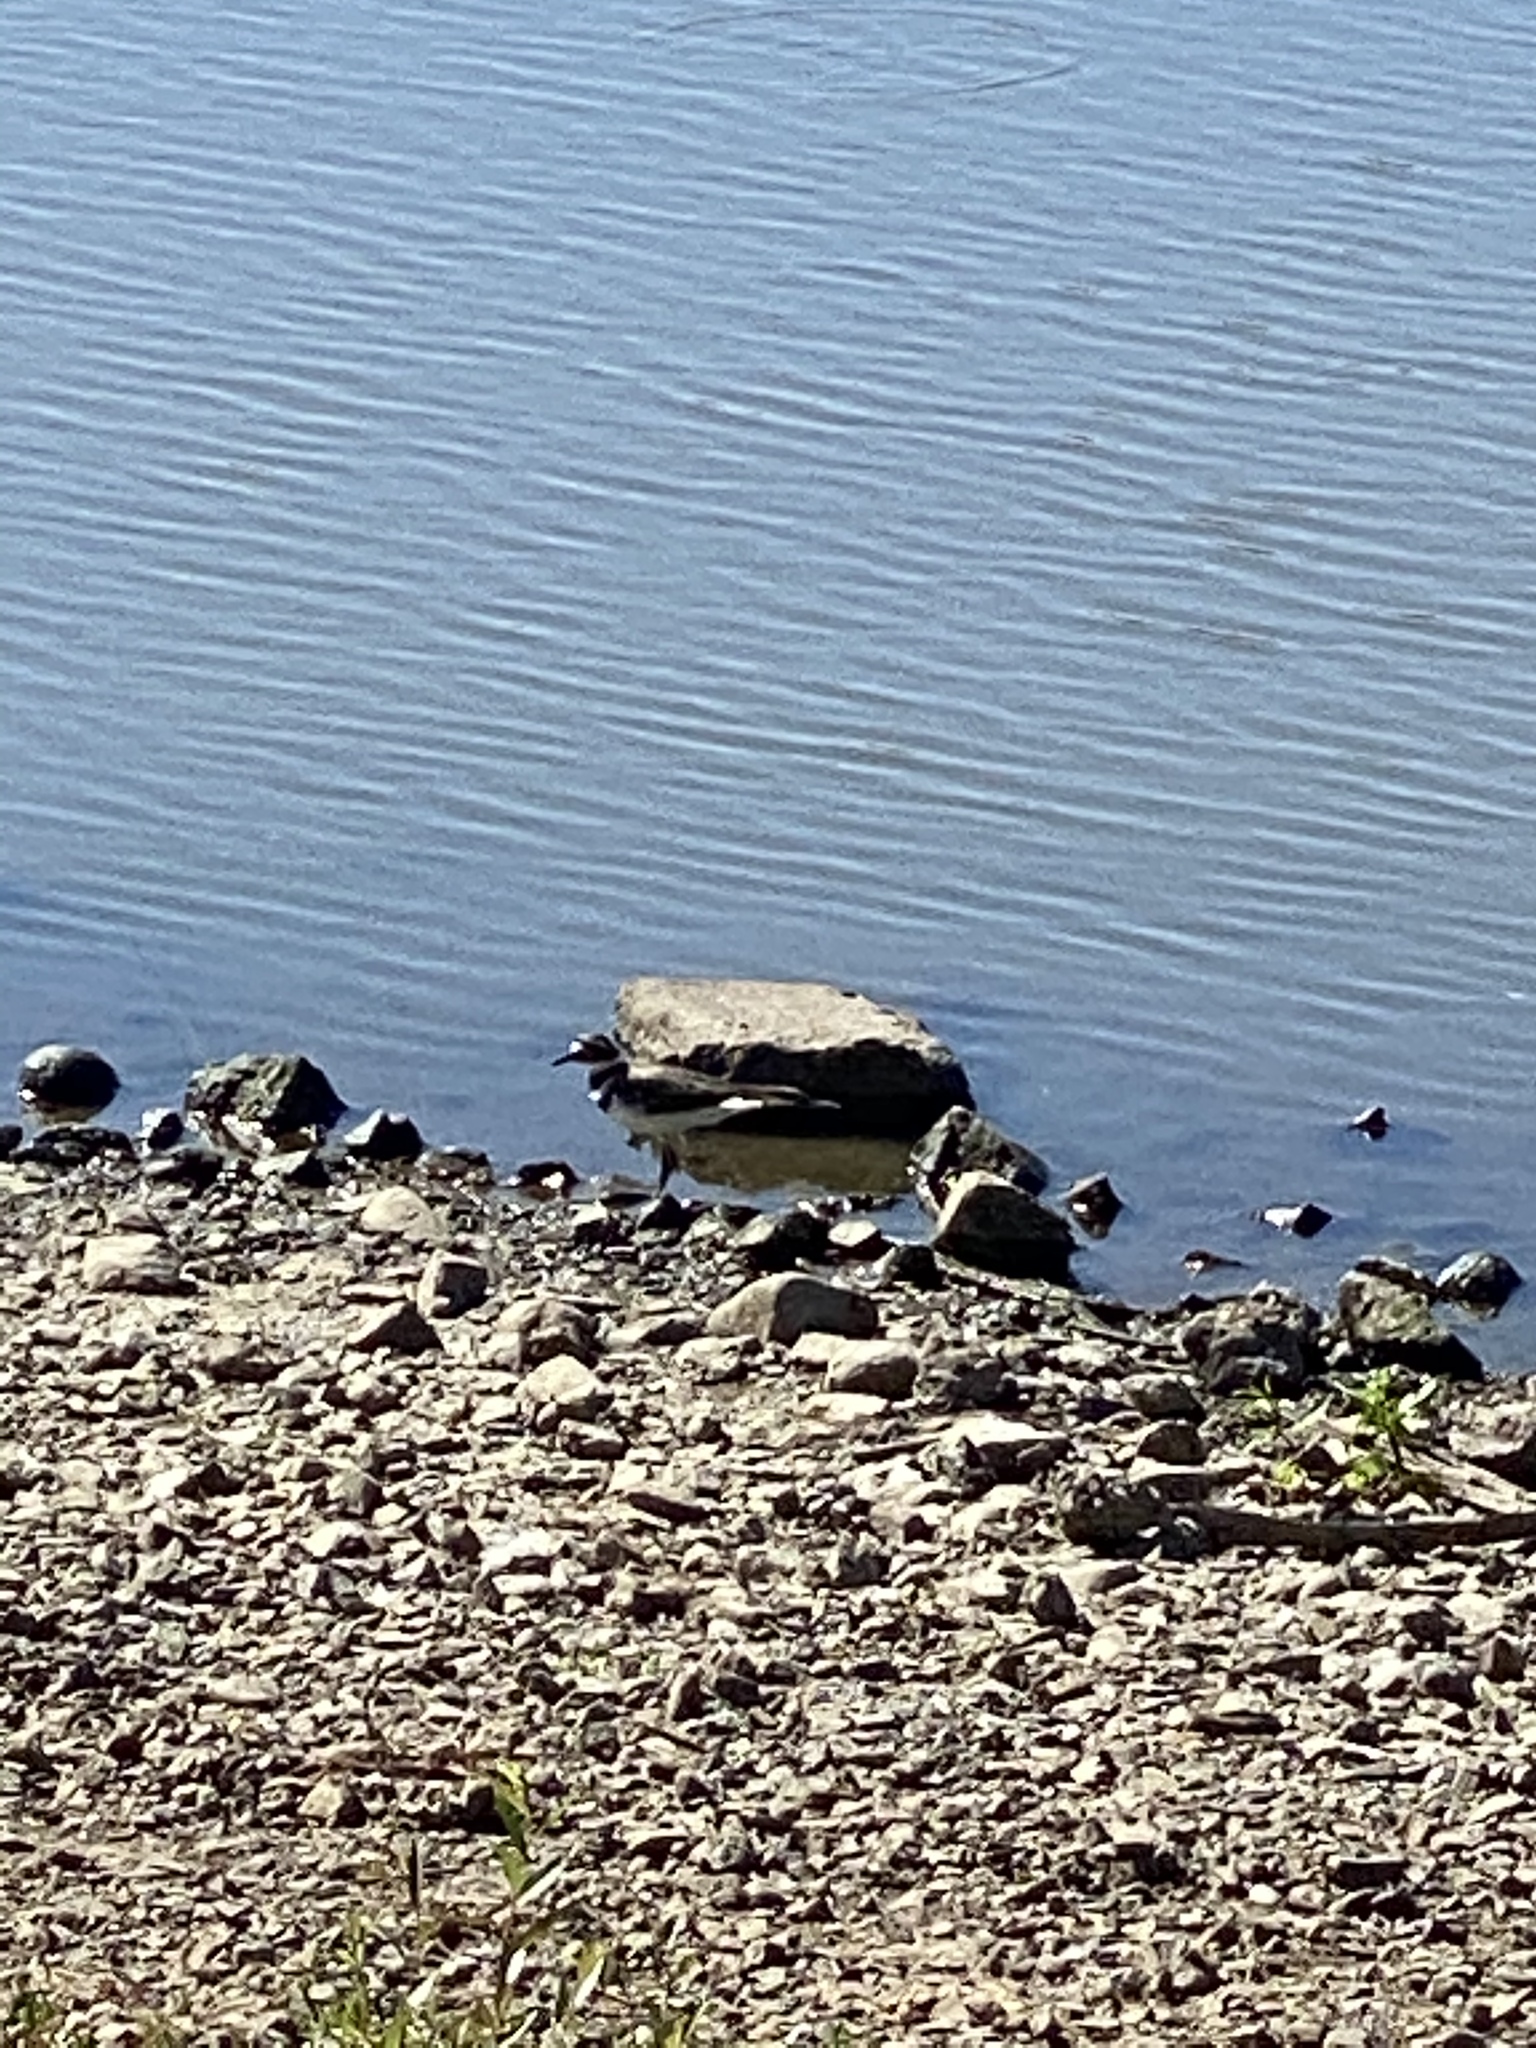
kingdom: Animalia
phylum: Chordata
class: Aves
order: Charadriiformes
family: Charadriidae
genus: Charadrius
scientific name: Charadrius vociferus
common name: Killdeer
